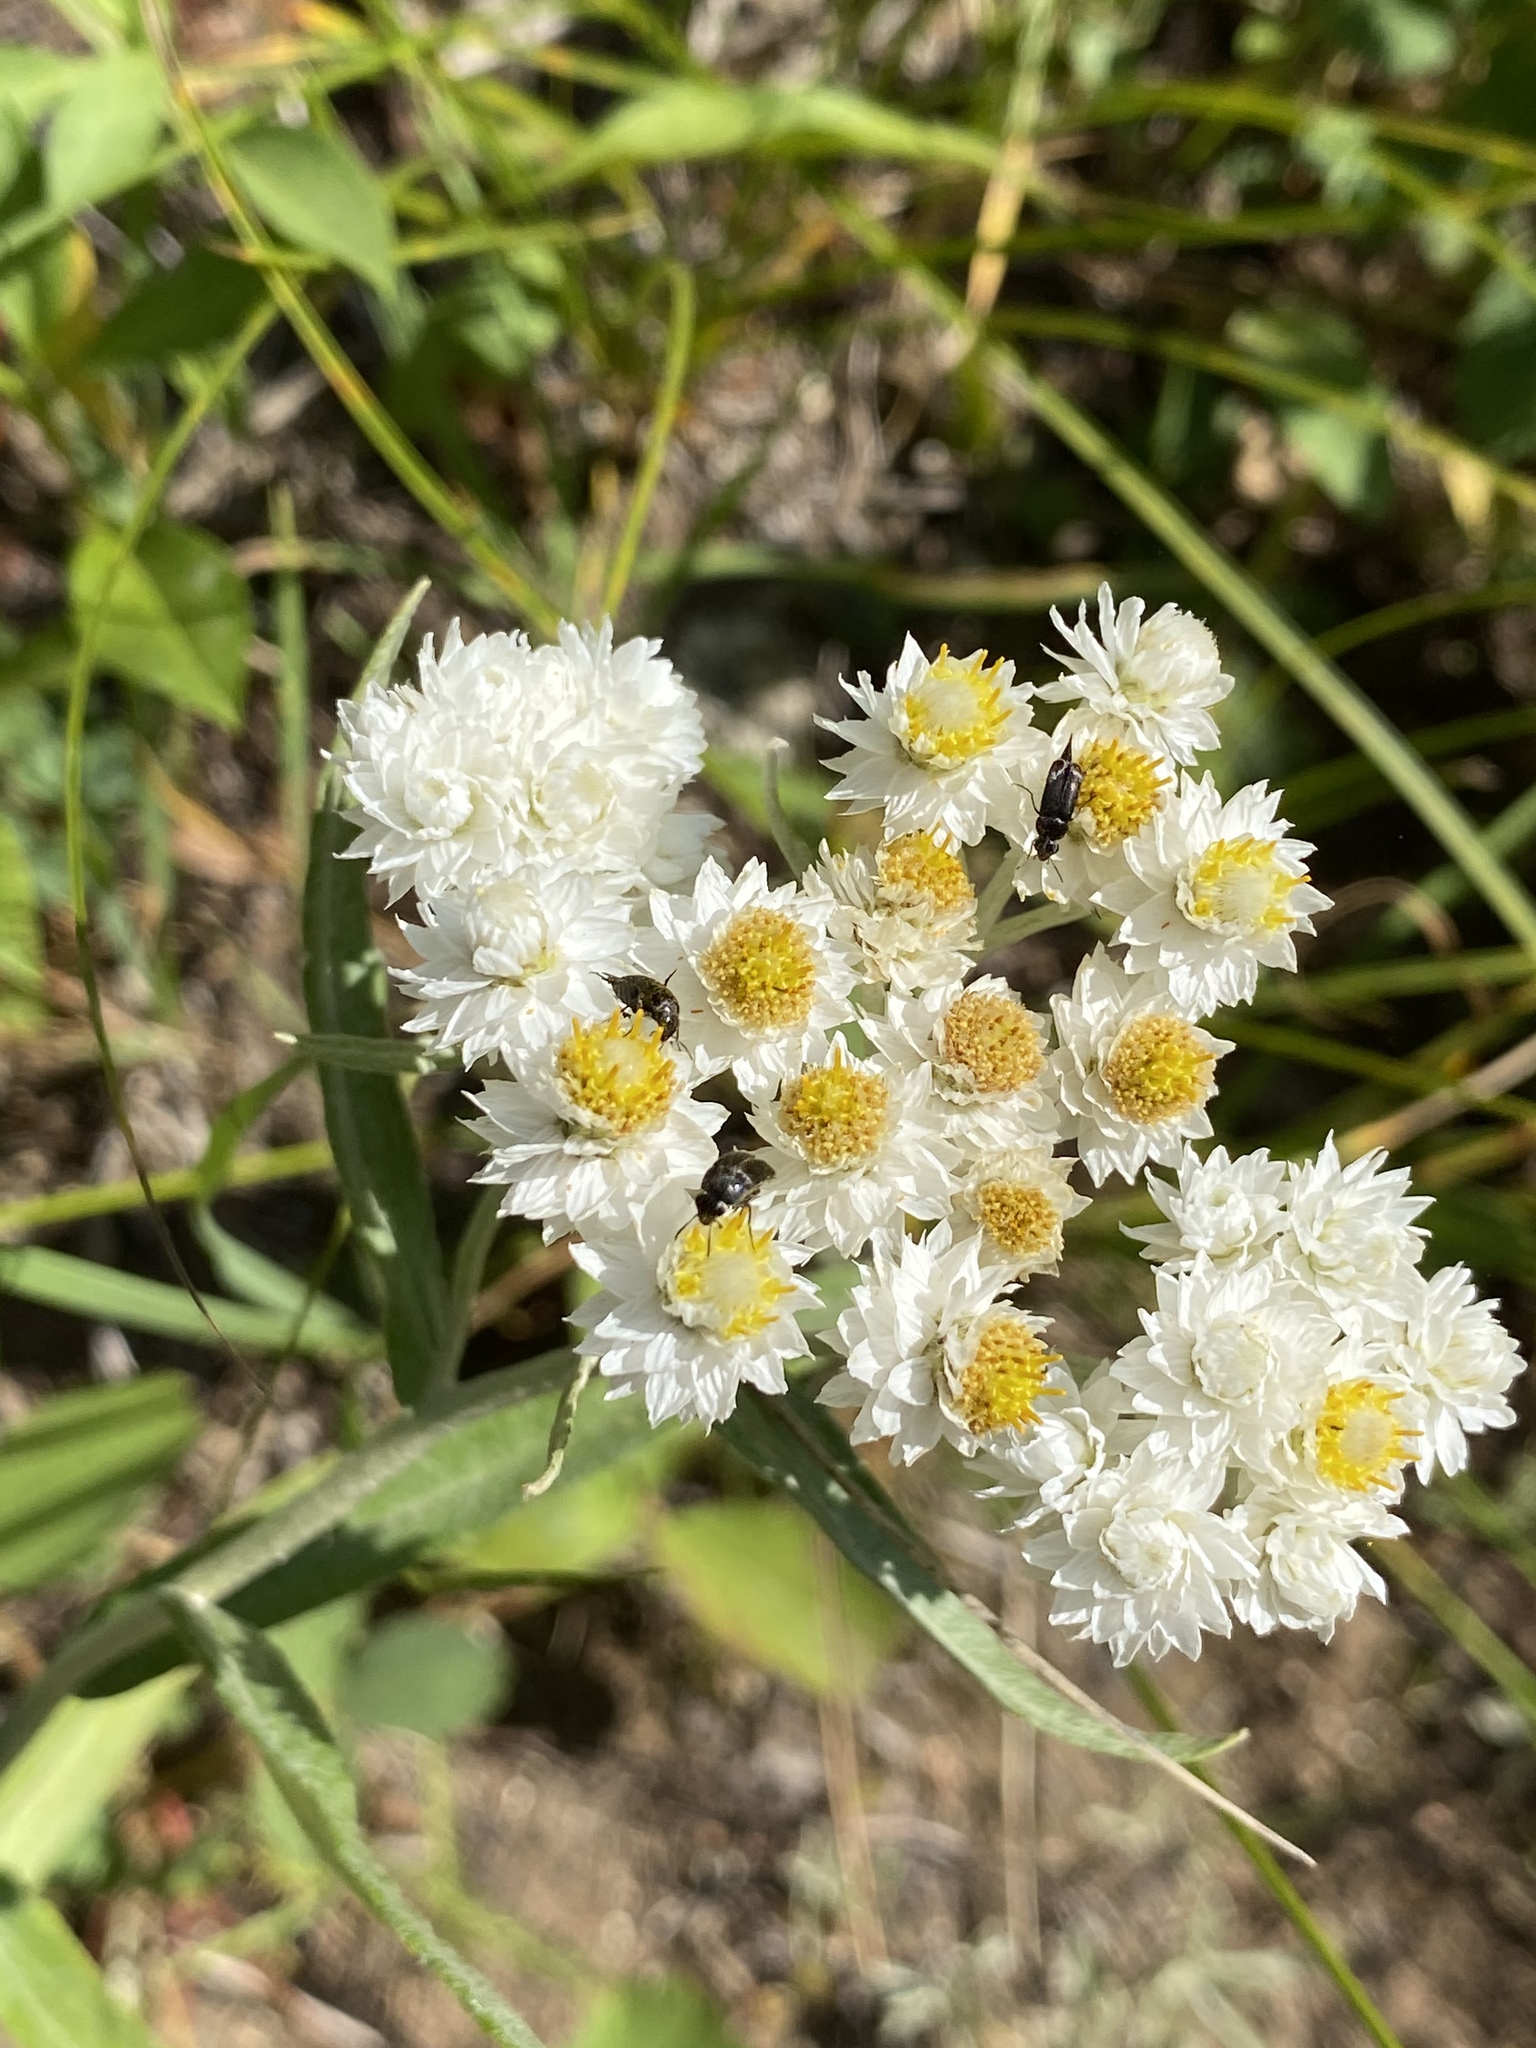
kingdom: Plantae
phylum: Tracheophyta
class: Magnoliopsida
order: Asterales
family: Asteraceae
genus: Anaphalis
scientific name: Anaphalis margaritacea
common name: Pearly everlasting
